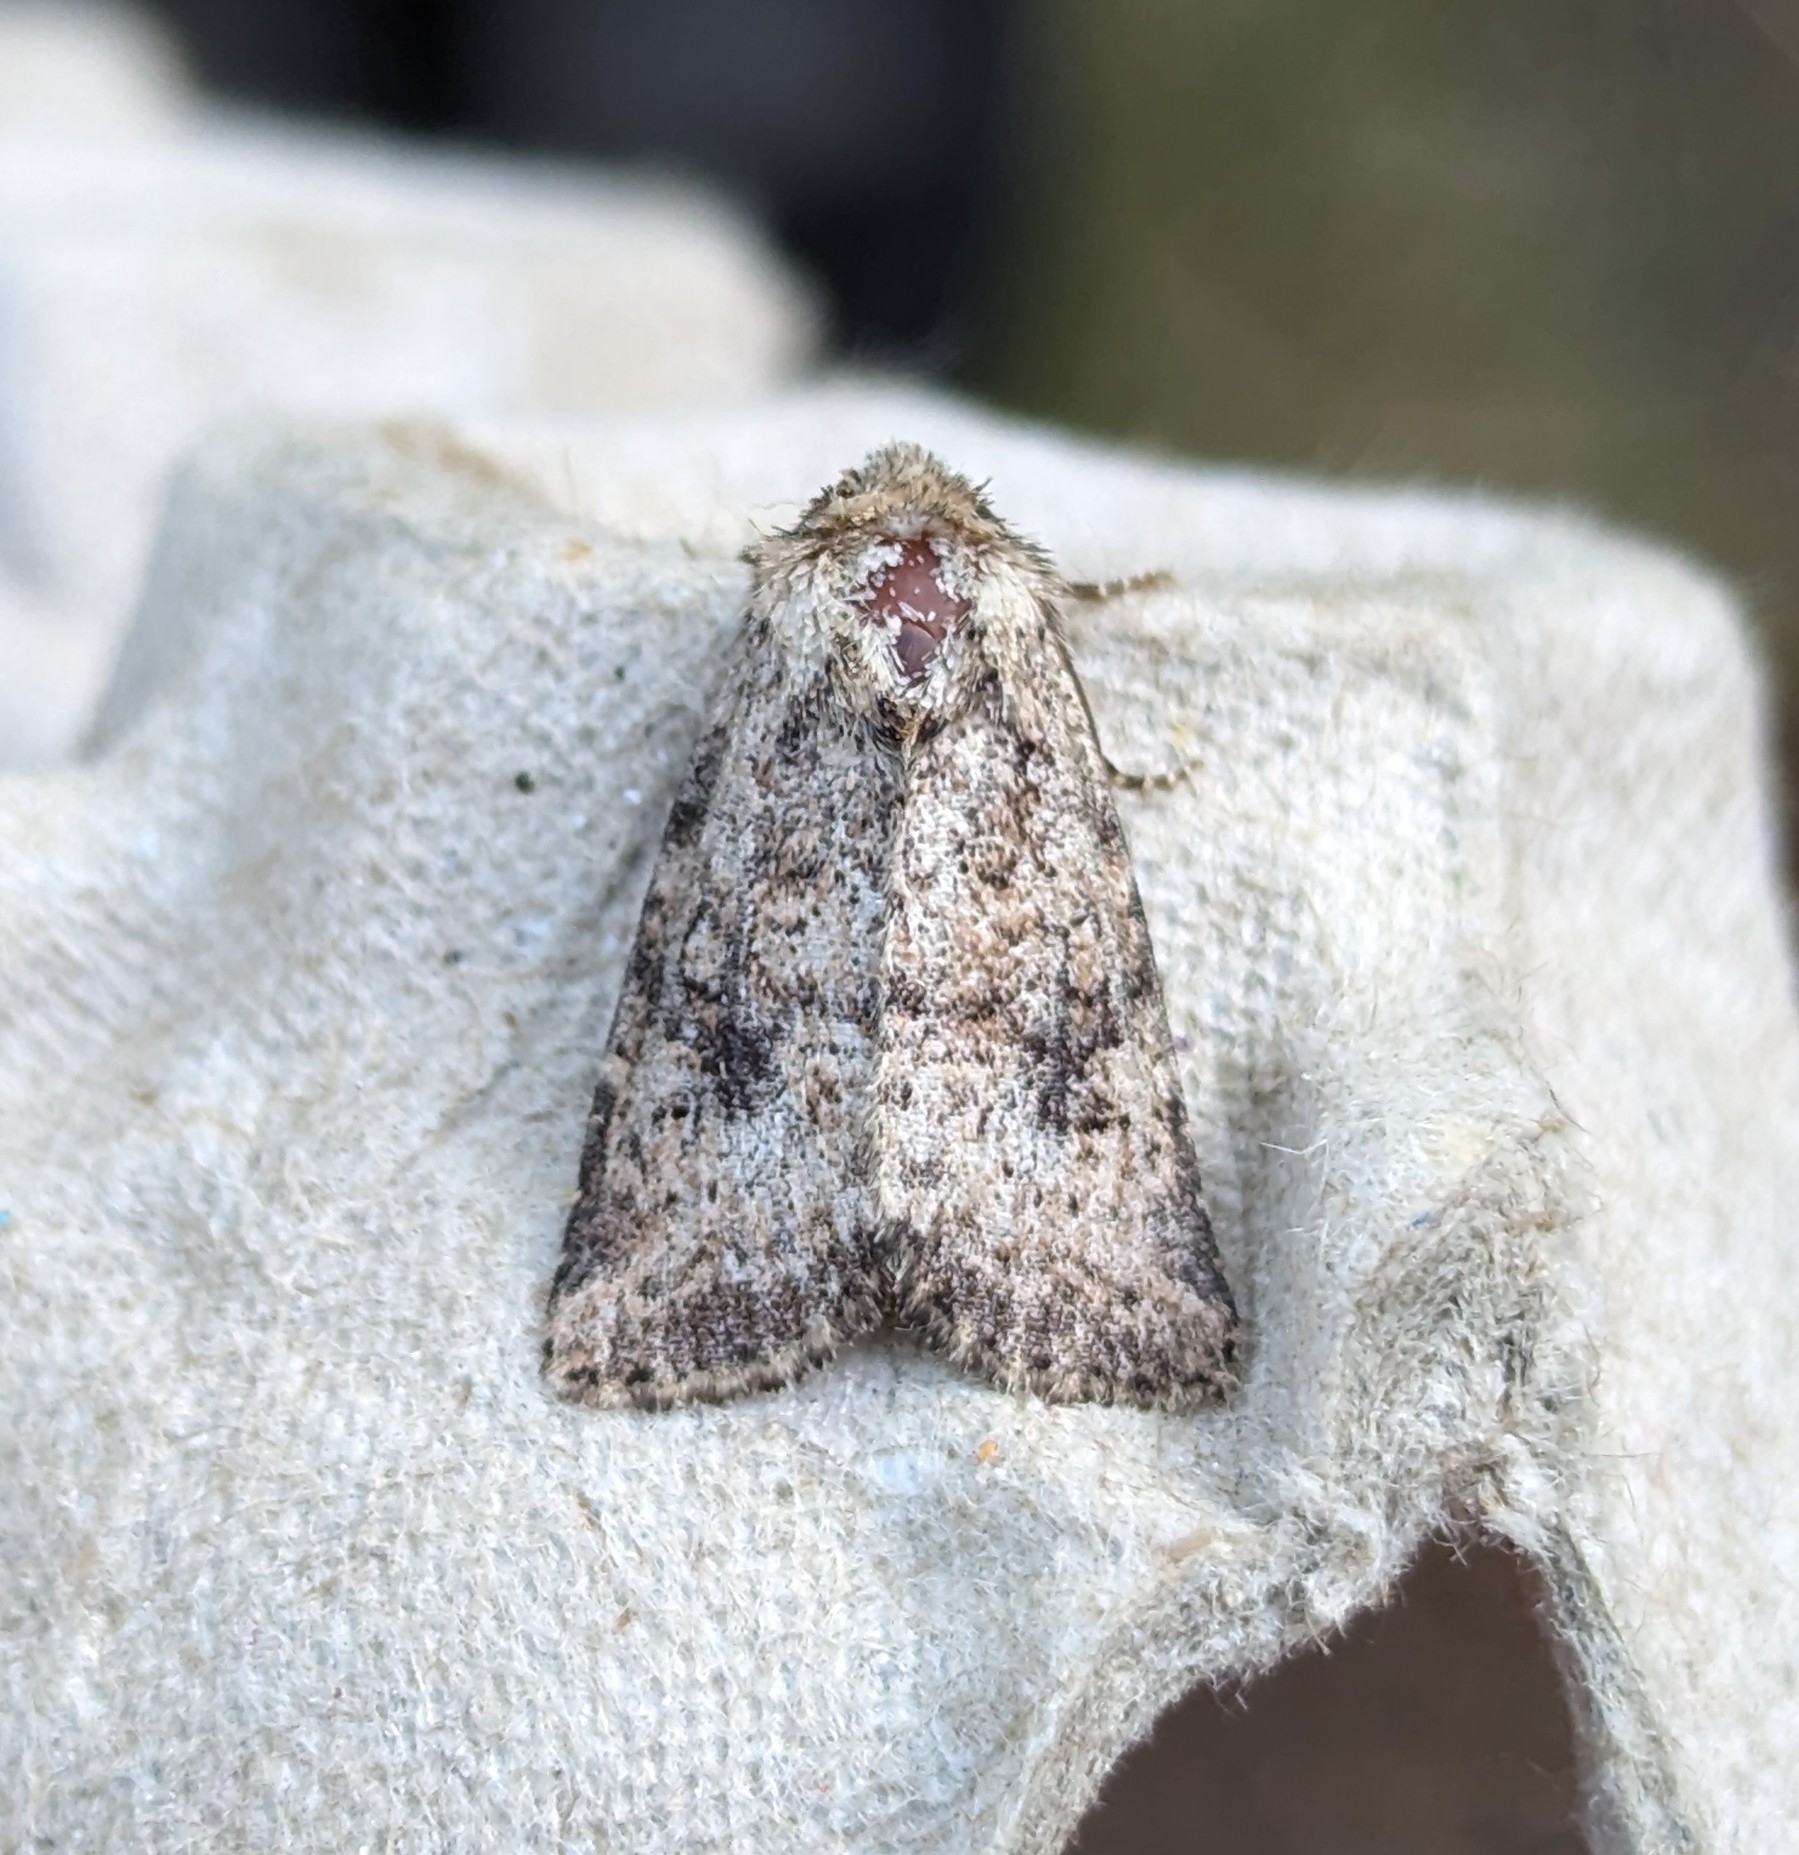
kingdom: Animalia
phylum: Arthropoda
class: Insecta
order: Lepidoptera
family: Noctuidae
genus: Homorthodes
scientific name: Homorthodes hanhami
